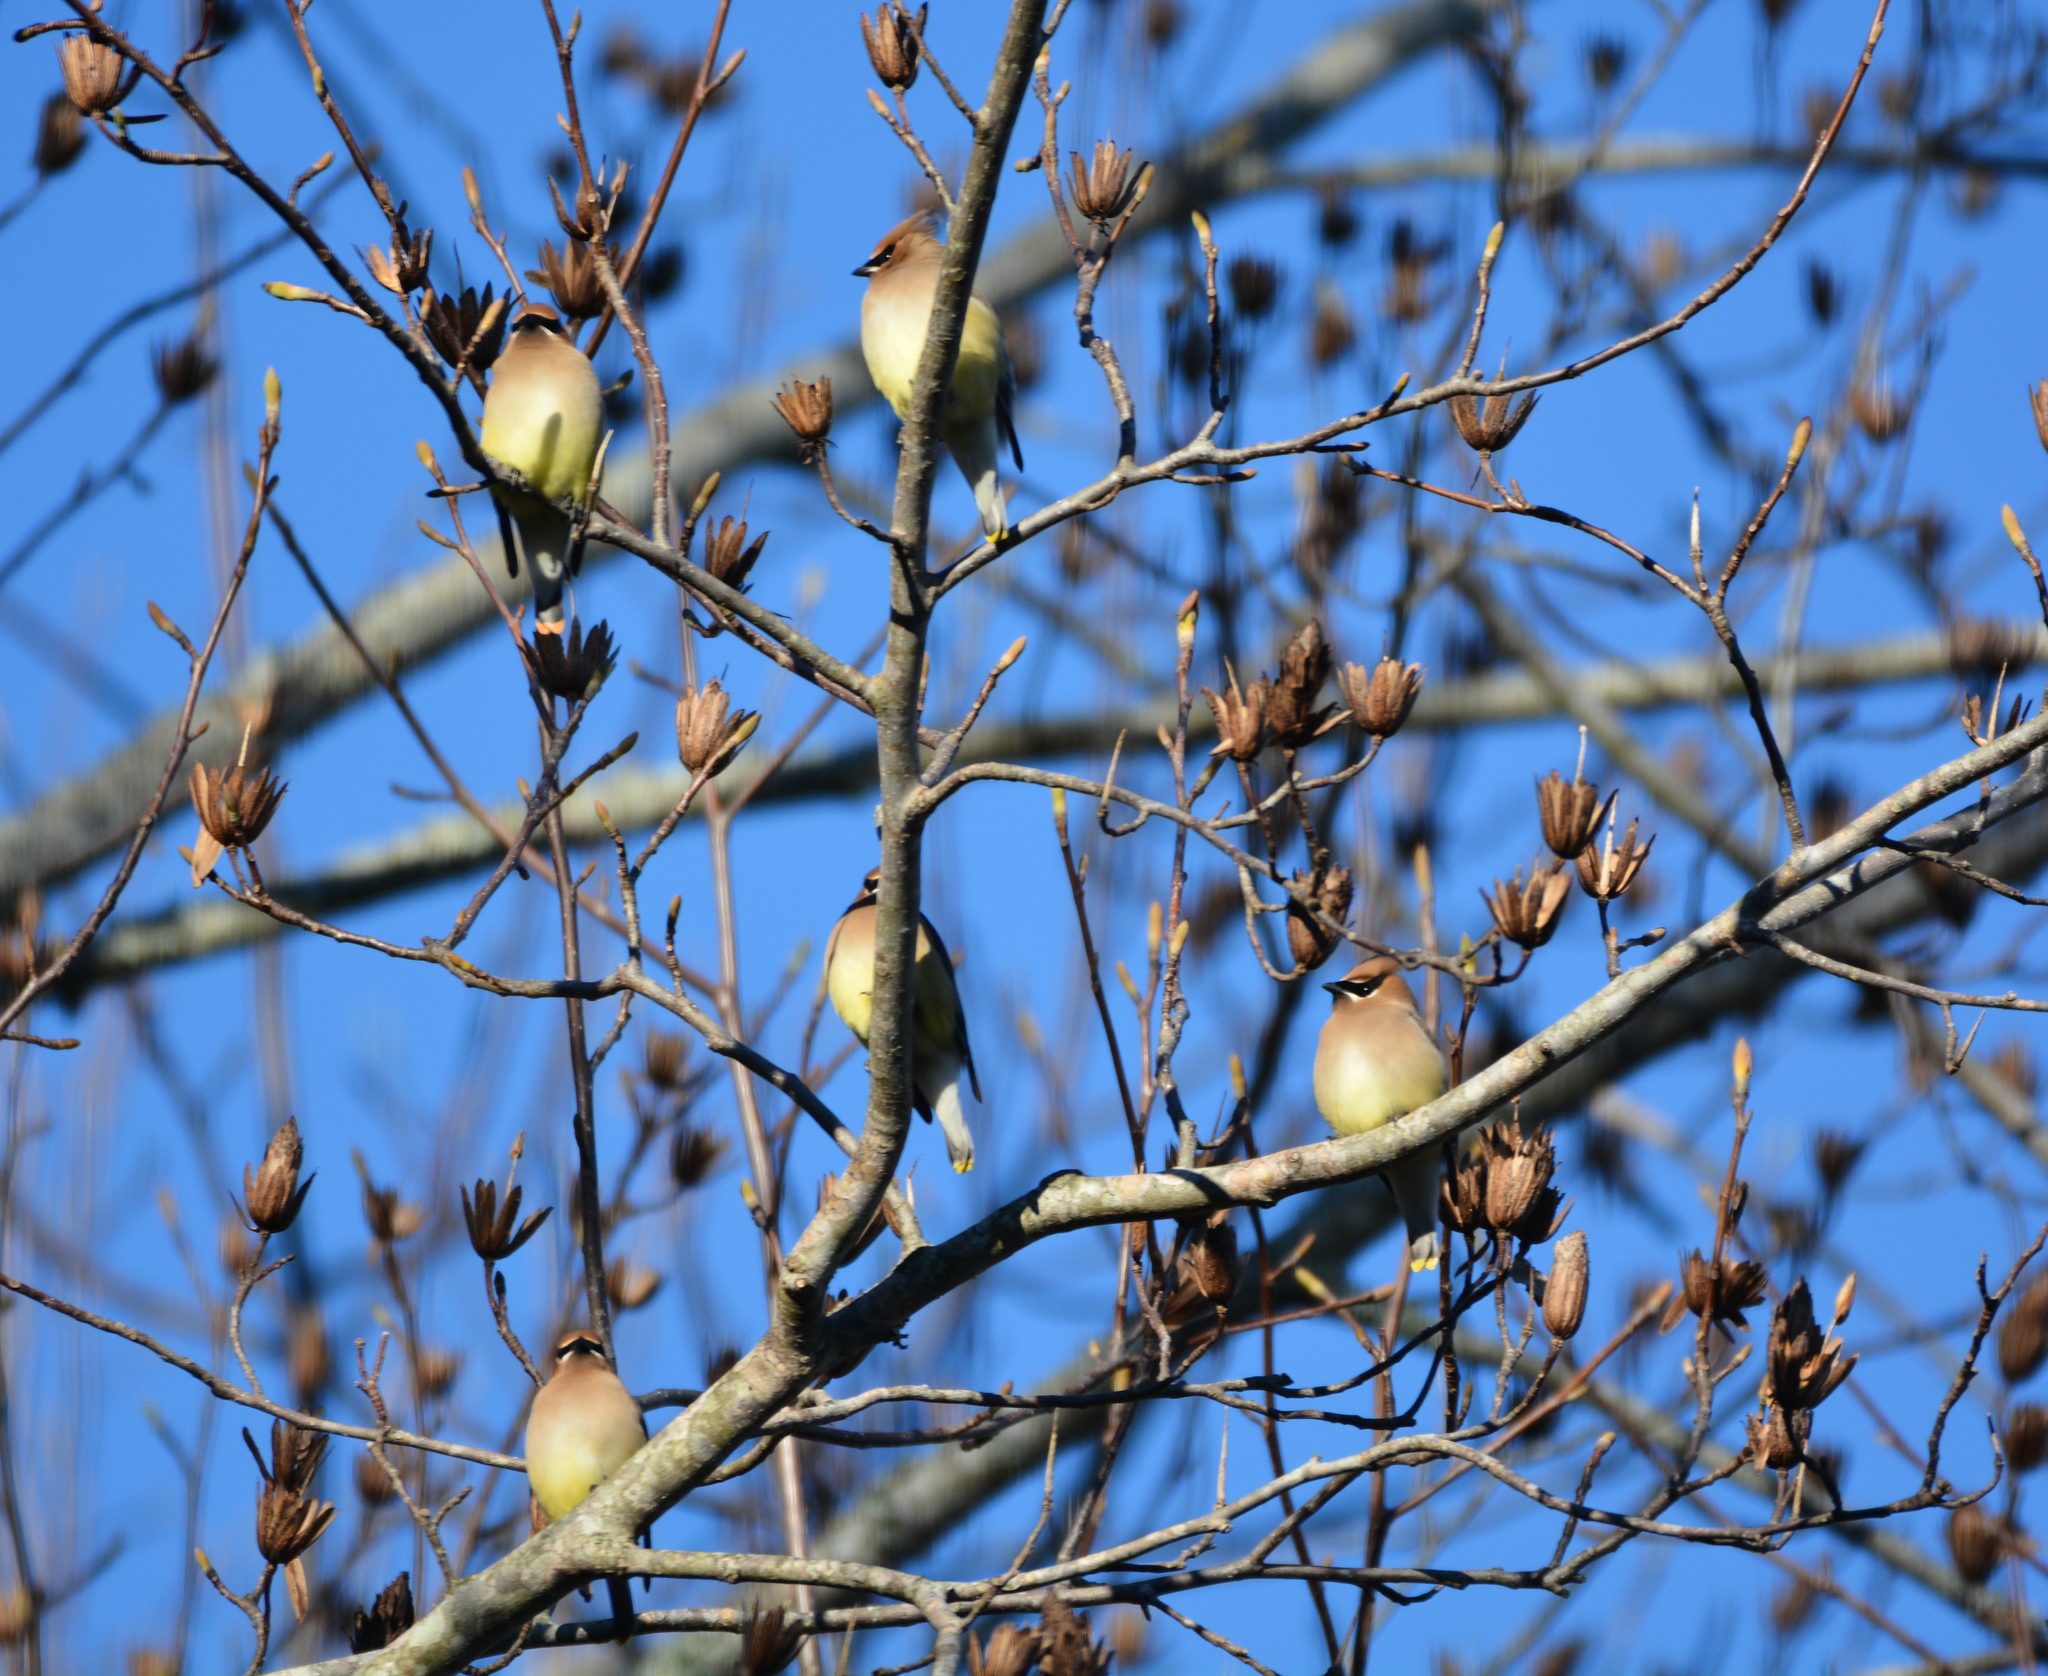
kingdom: Animalia
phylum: Chordata
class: Aves
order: Passeriformes
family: Bombycillidae
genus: Bombycilla
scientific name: Bombycilla cedrorum
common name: Cedar waxwing
